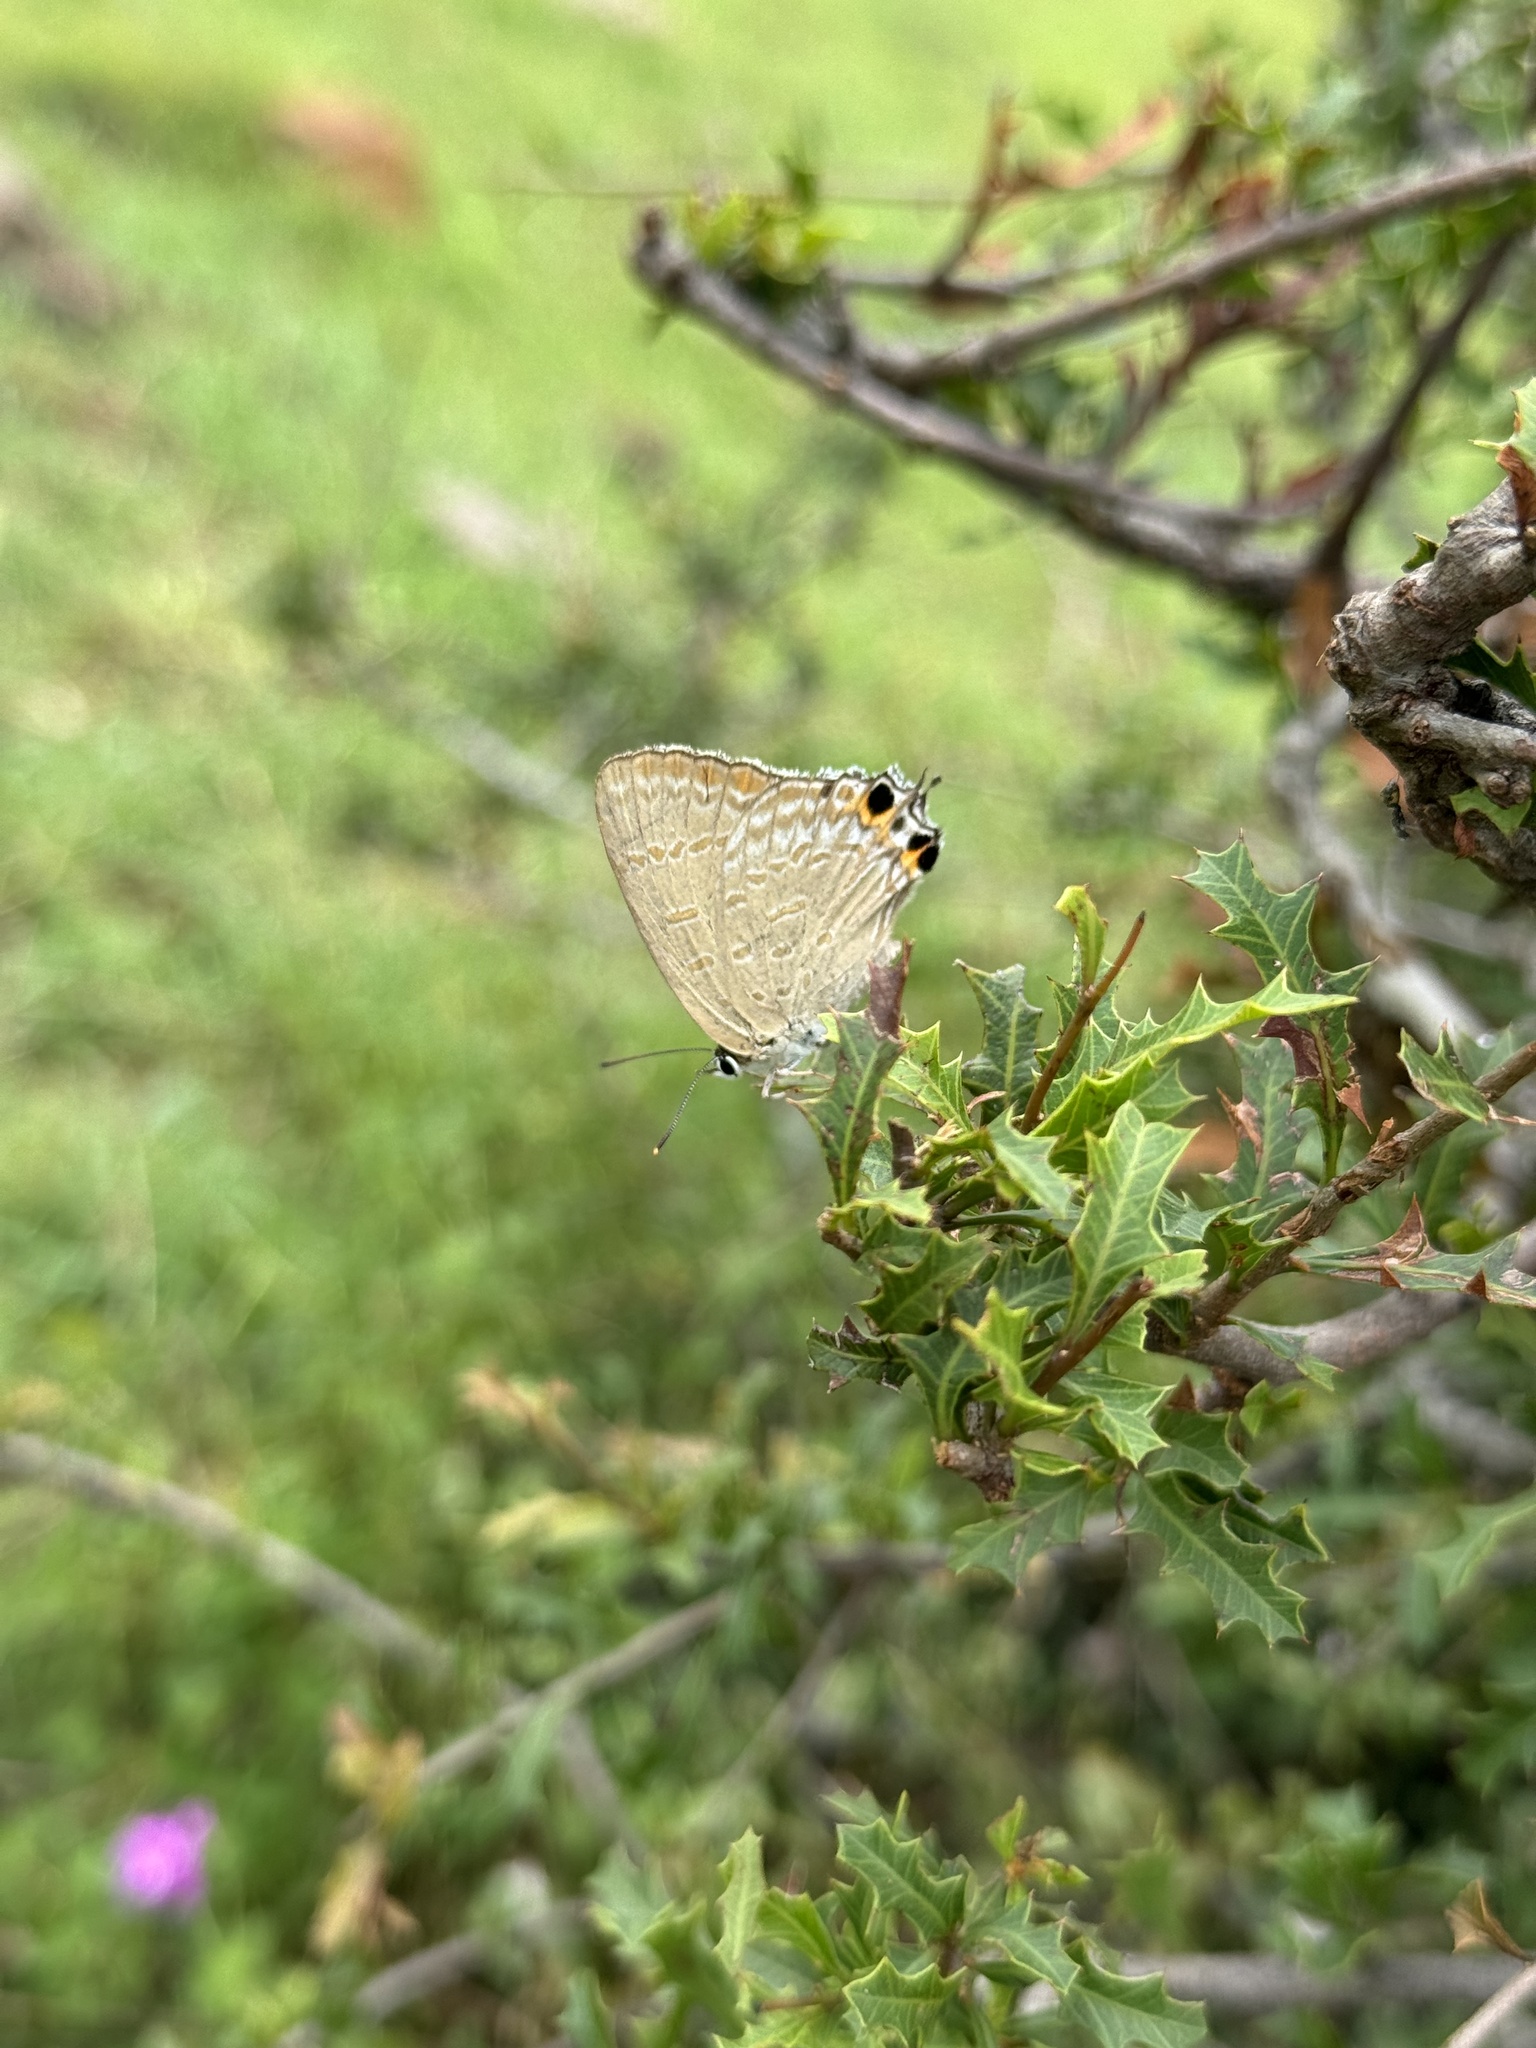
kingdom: Animalia
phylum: Arthropoda
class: Insecta
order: Lepidoptera
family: Lycaenidae
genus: Jalmenus
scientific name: Jalmenus daemeli
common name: Emerald hairstreak
